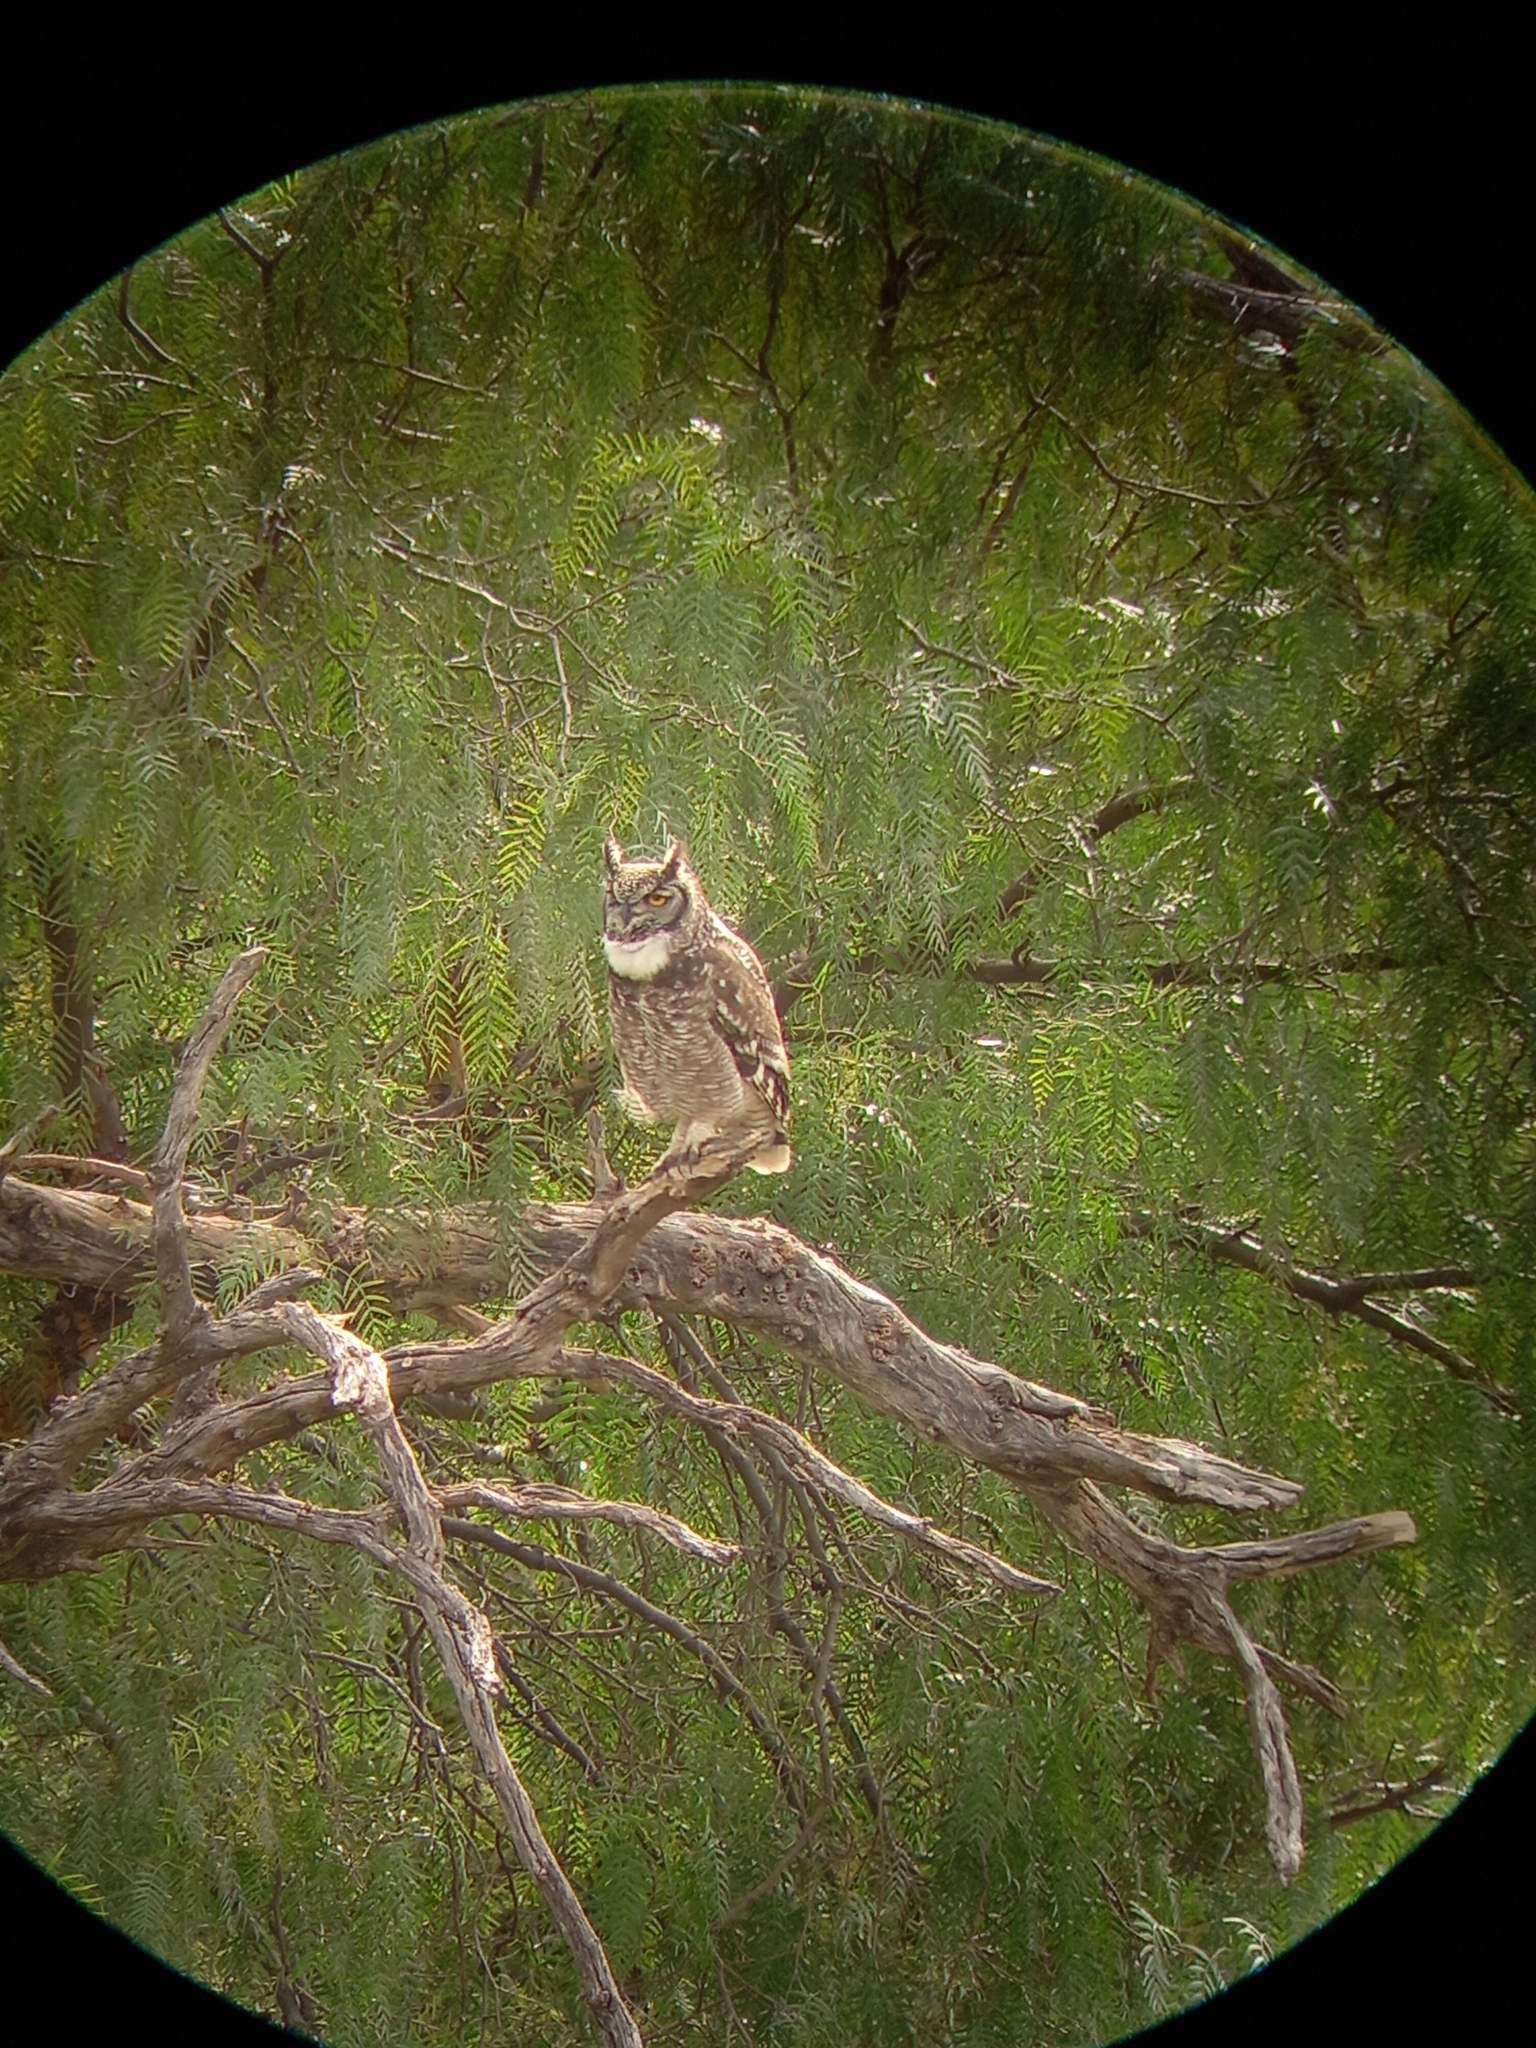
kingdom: Animalia
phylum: Chordata
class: Aves
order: Strigiformes
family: Strigidae
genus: Bubo
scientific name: Bubo africanus
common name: Spotted eagle-owl
